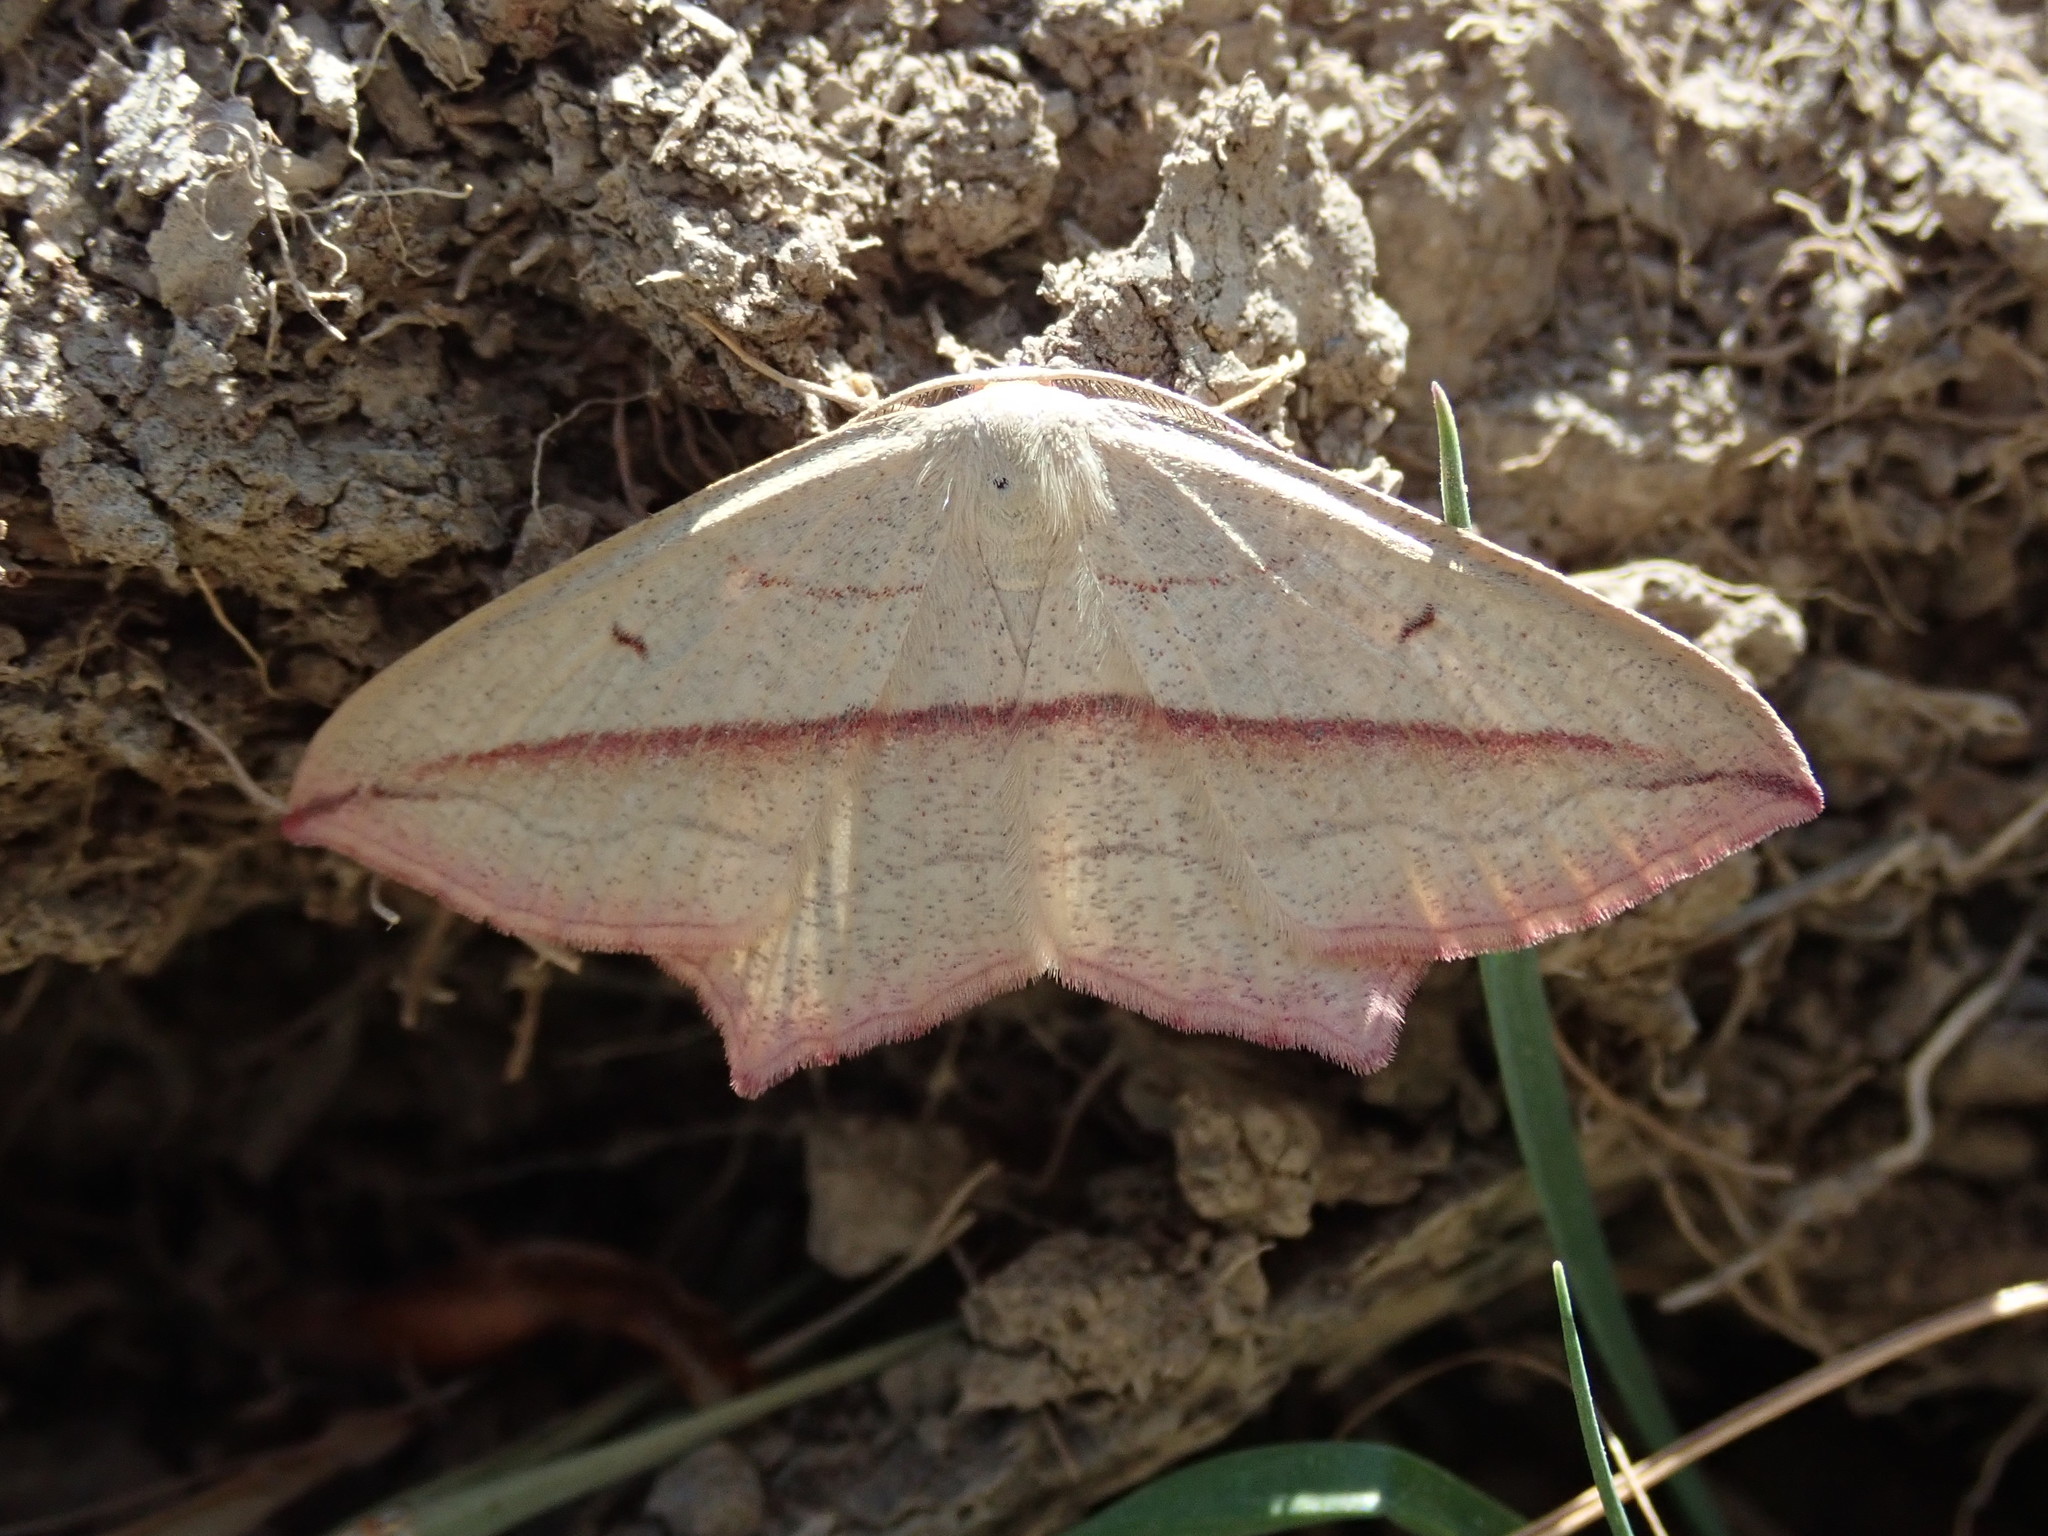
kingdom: Animalia
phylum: Arthropoda
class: Insecta
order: Lepidoptera
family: Geometridae
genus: Timandra
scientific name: Timandra comae
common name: Blood-vein
